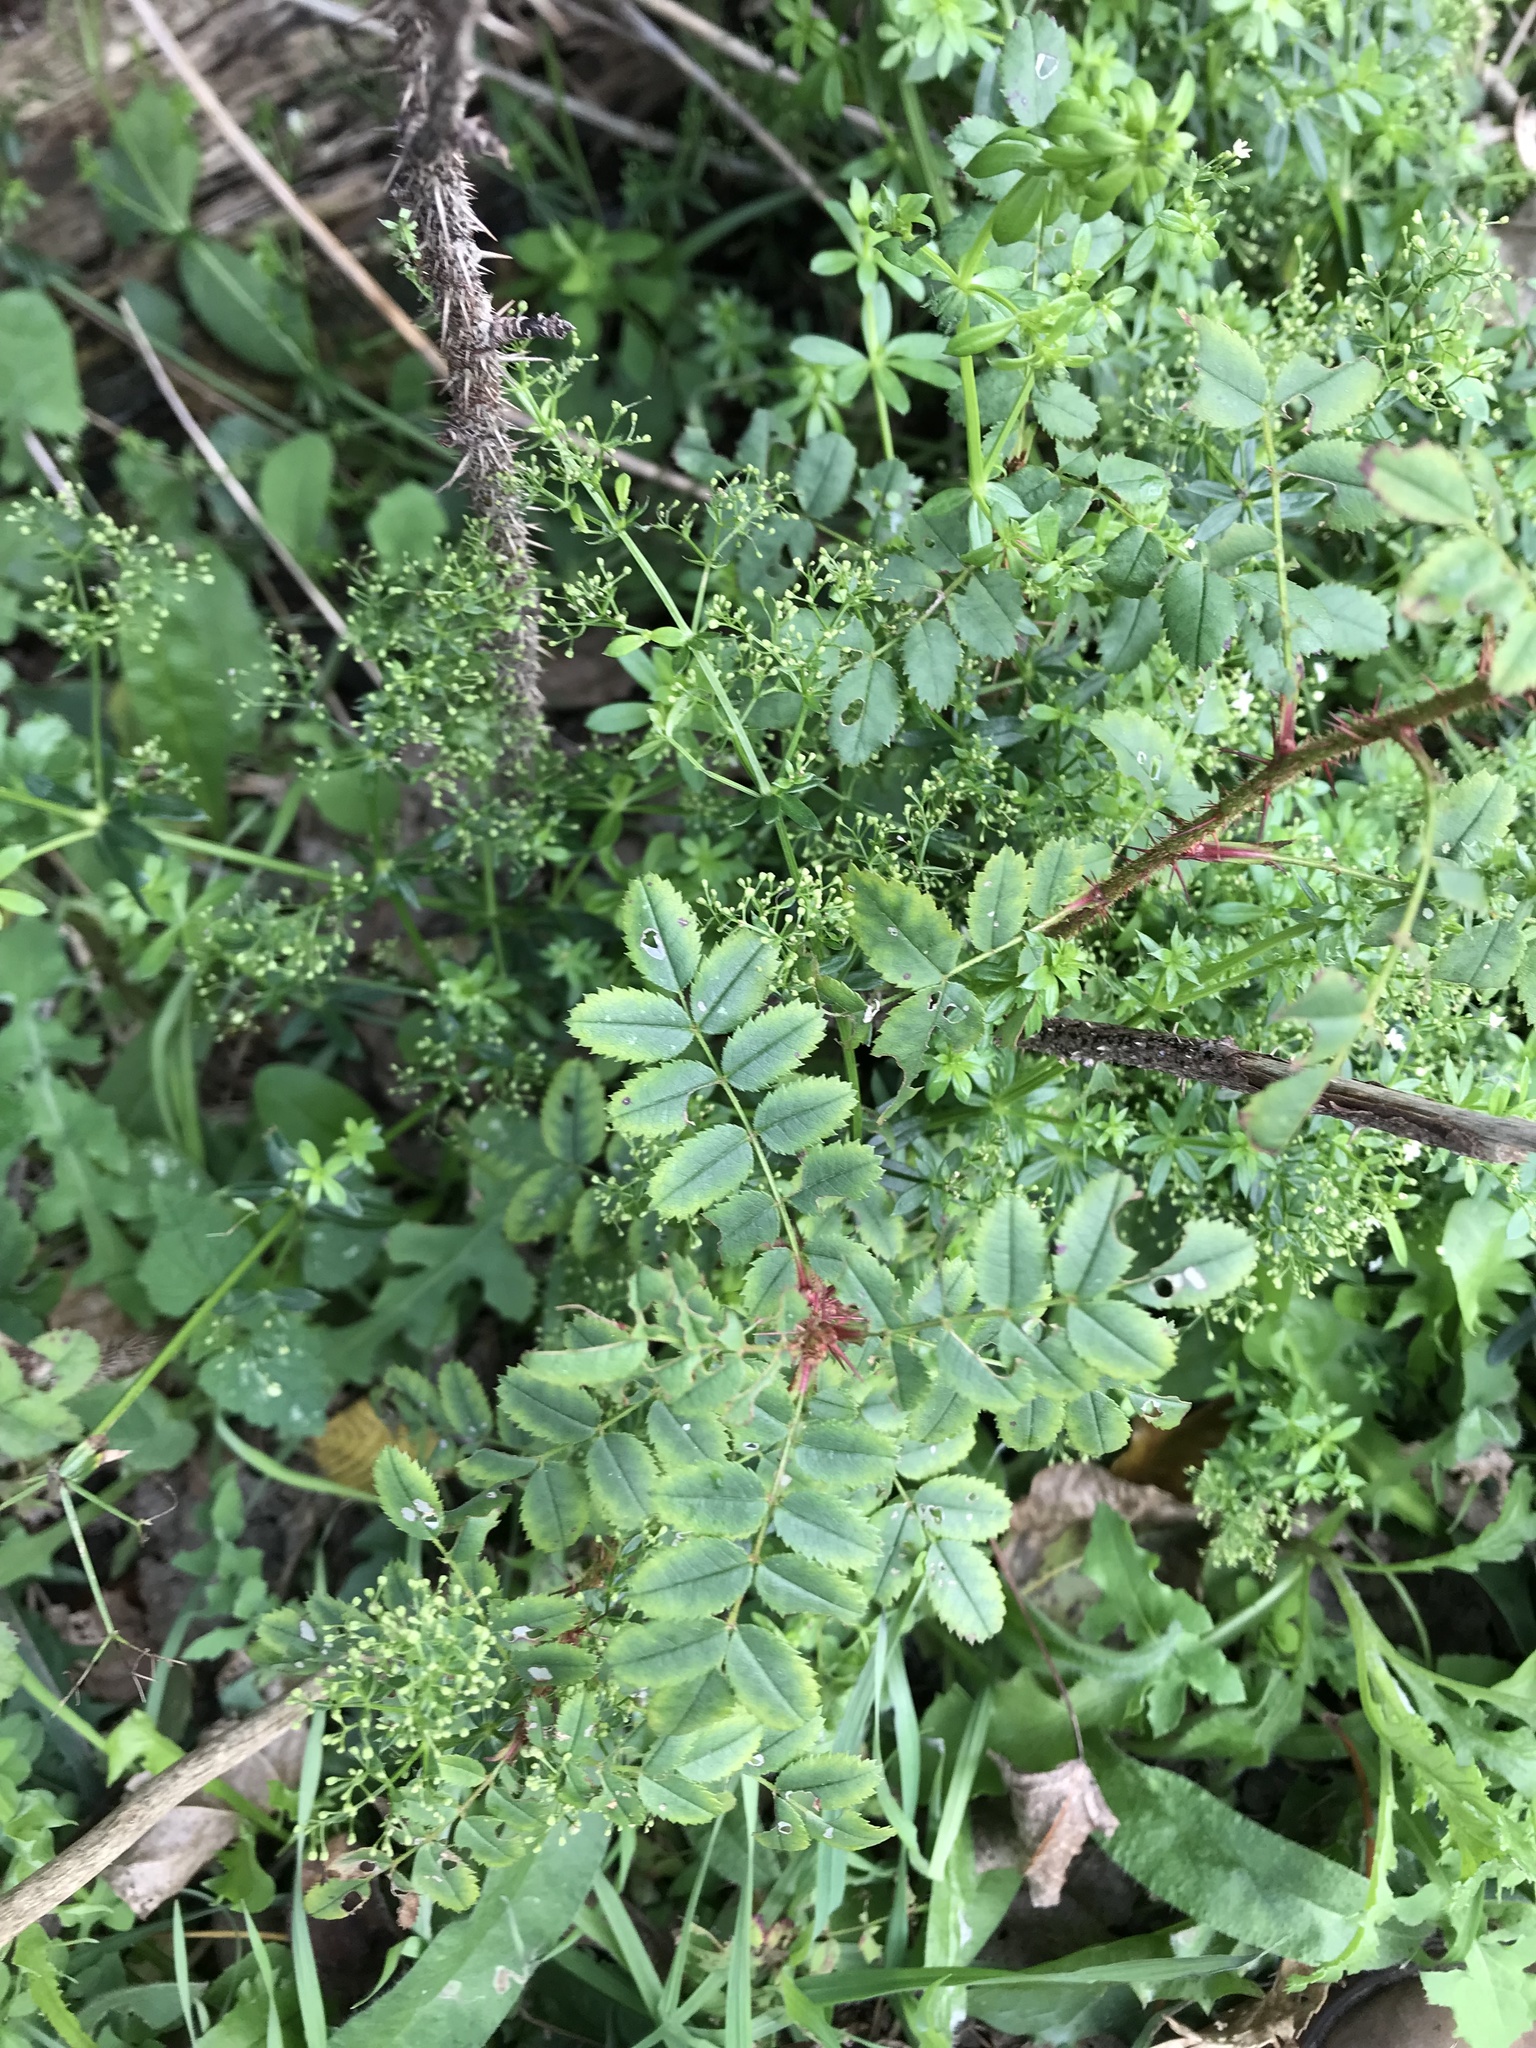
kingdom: Plantae
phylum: Tracheophyta
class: Magnoliopsida
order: Rosales
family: Rosaceae
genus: Rosa
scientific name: Rosa spinosissima
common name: Burnet rose
